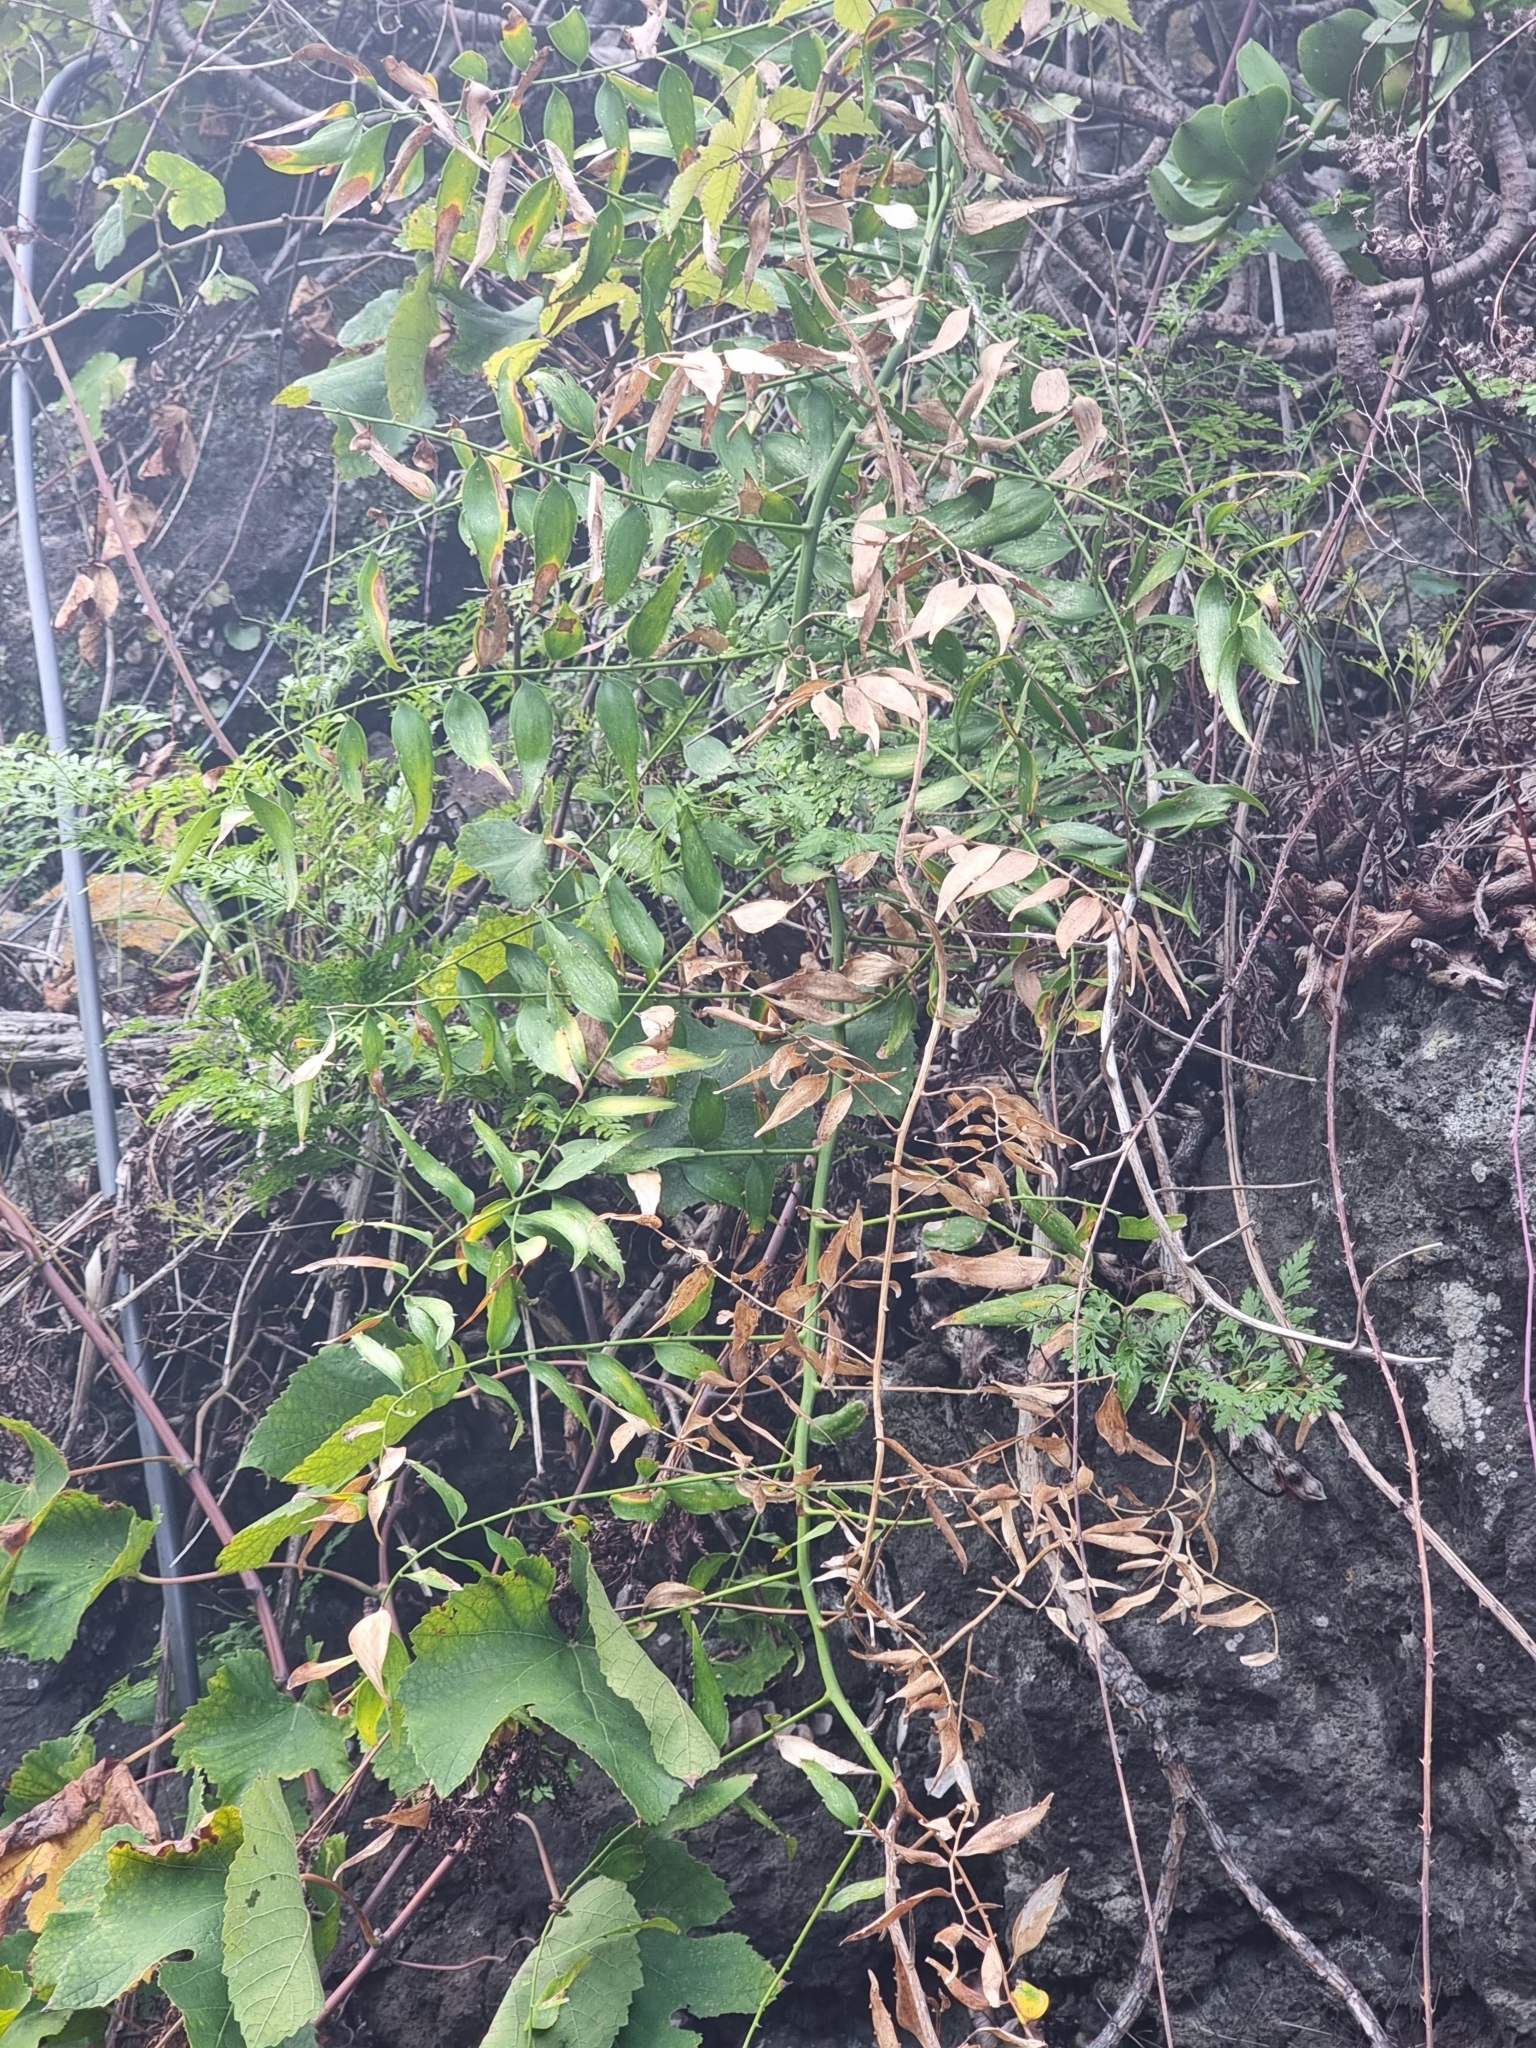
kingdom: Plantae
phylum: Tracheophyta
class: Liliopsida
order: Asparagales
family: Asparagaceae
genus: Semele
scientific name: Semele androgyna
